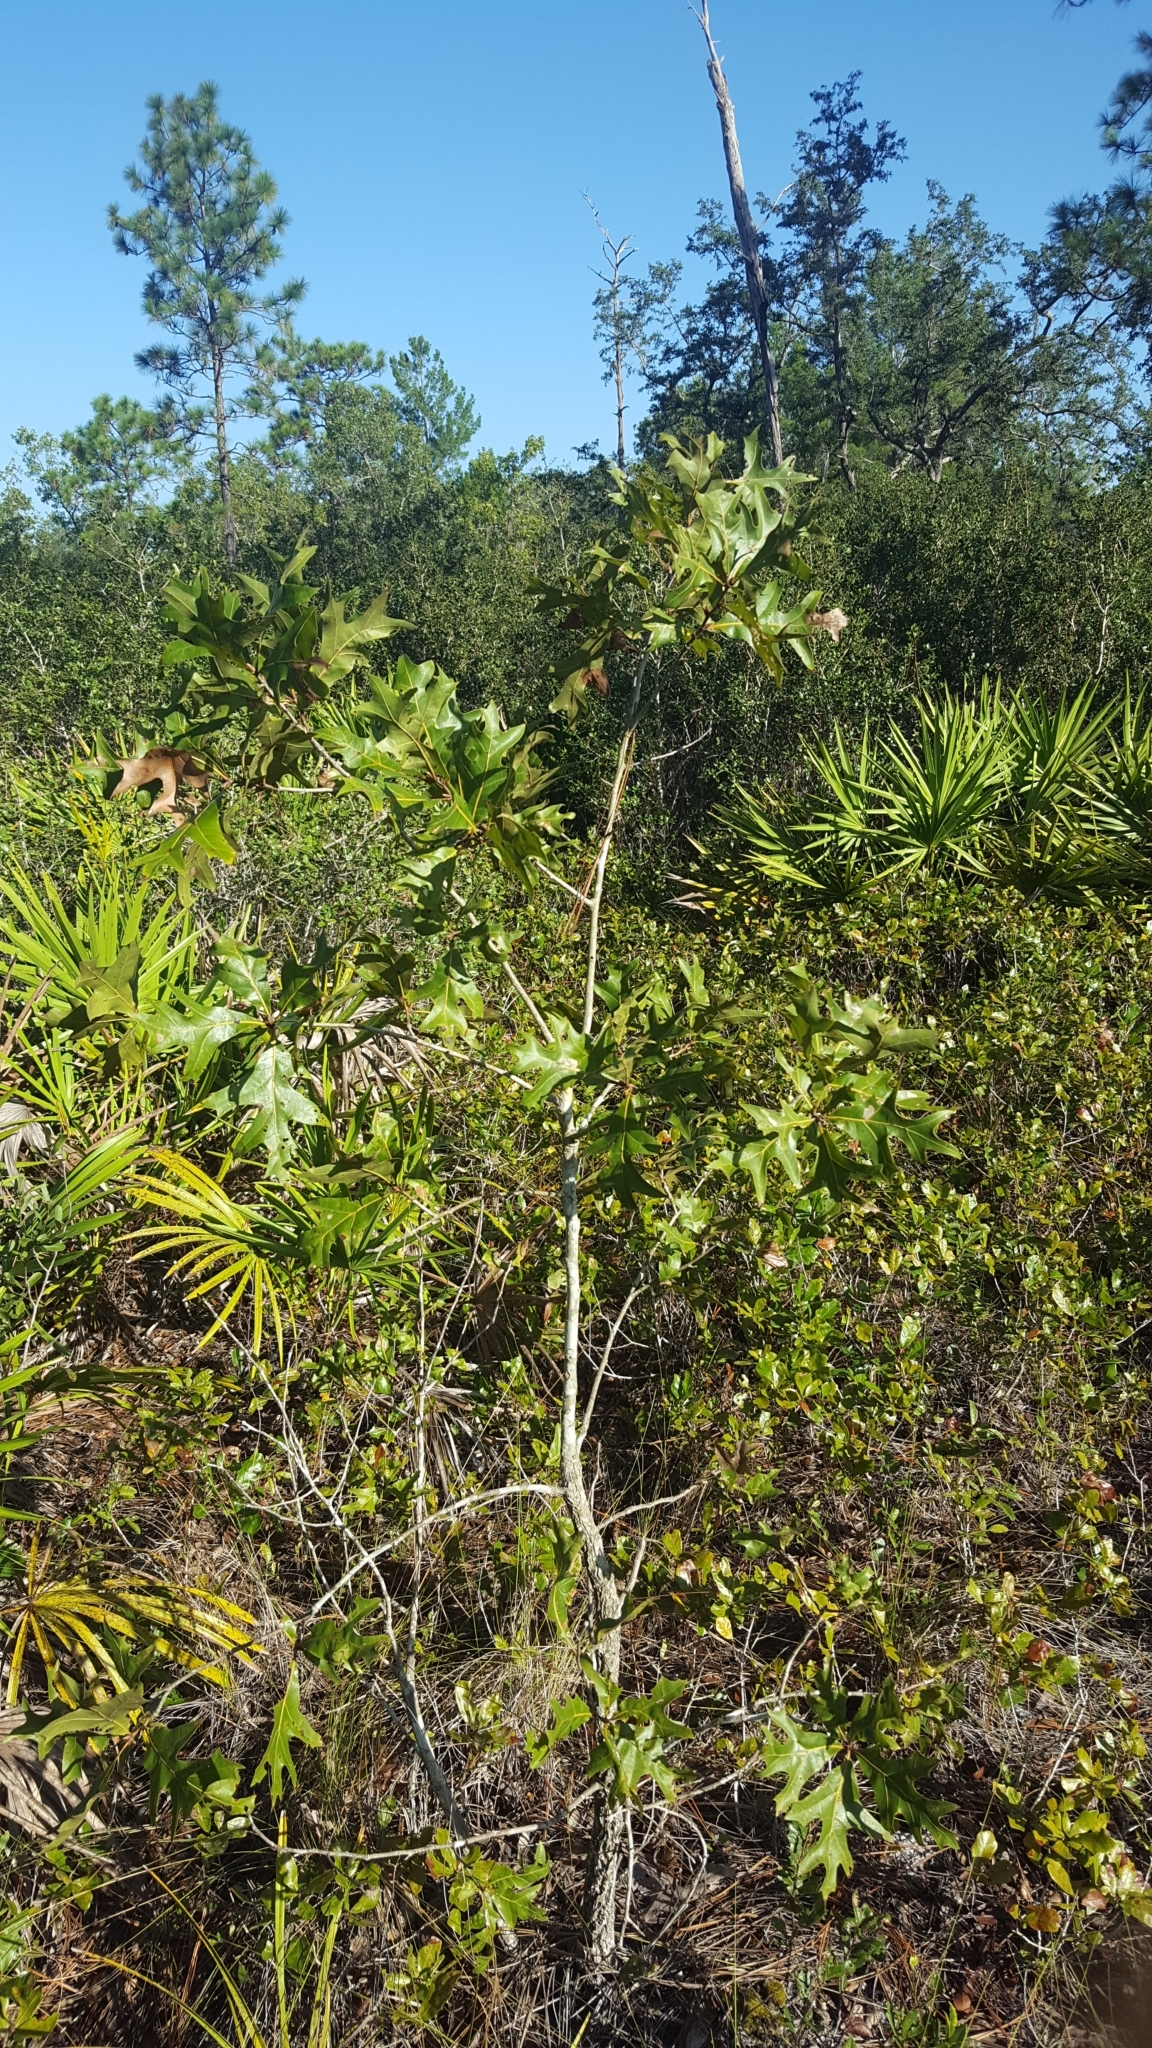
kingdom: Plantae
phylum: Tracheophyta
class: Magnoliopsida
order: Fagales
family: Fagaceae
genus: Quercus
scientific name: Quercus laevis
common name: Turkey oak
